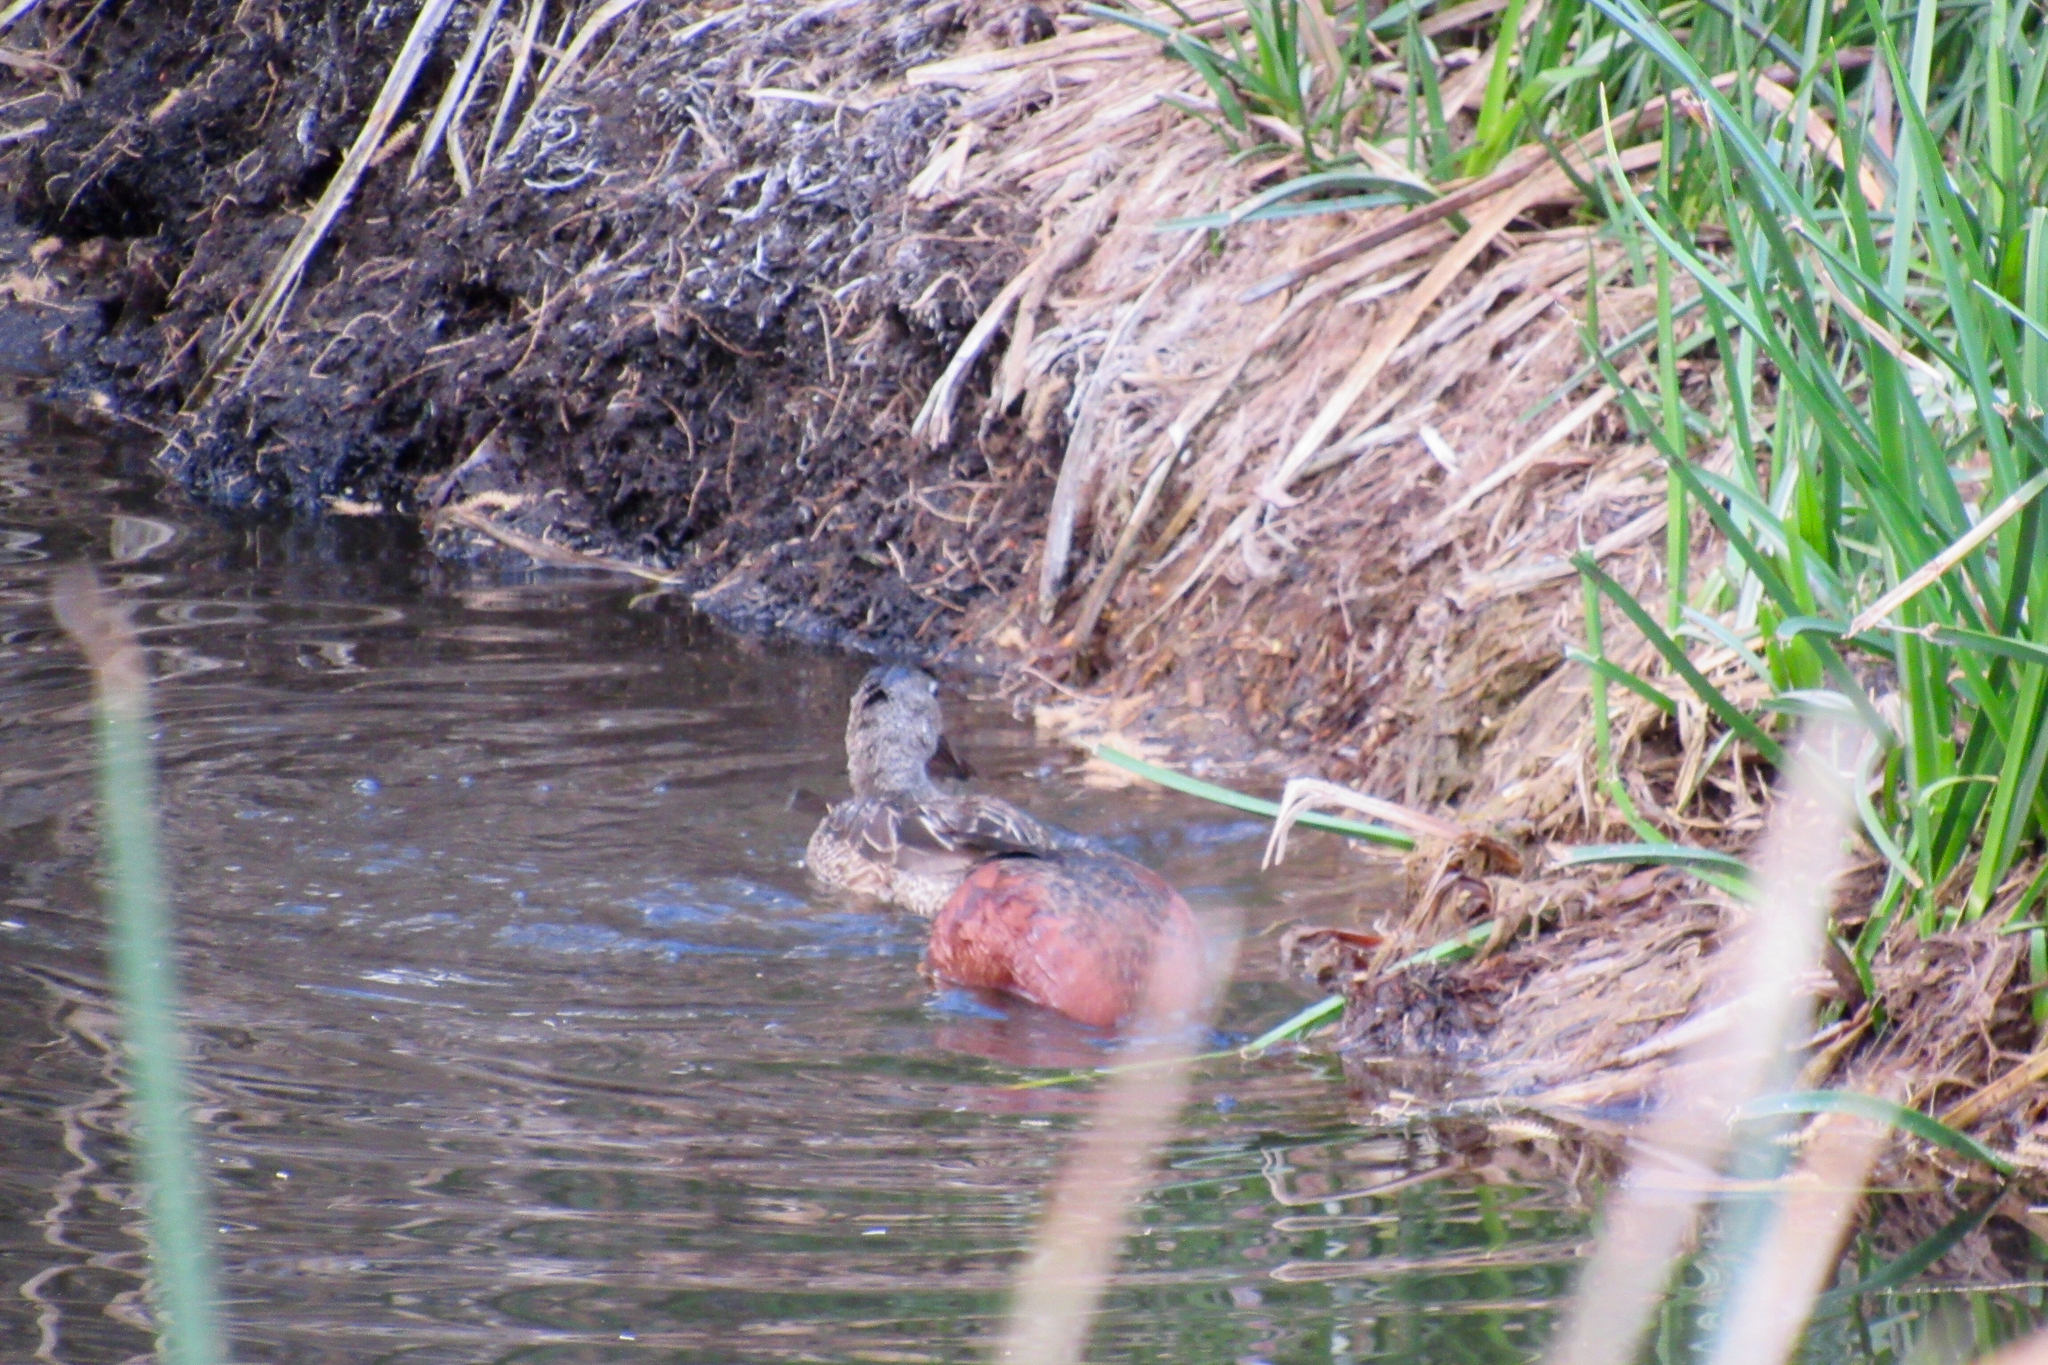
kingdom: Animalia
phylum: Chordata
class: Aves
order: Anseriformes
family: Anatidae
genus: Spatula
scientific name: Spatula cyanoptera
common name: Cinnamon teal
